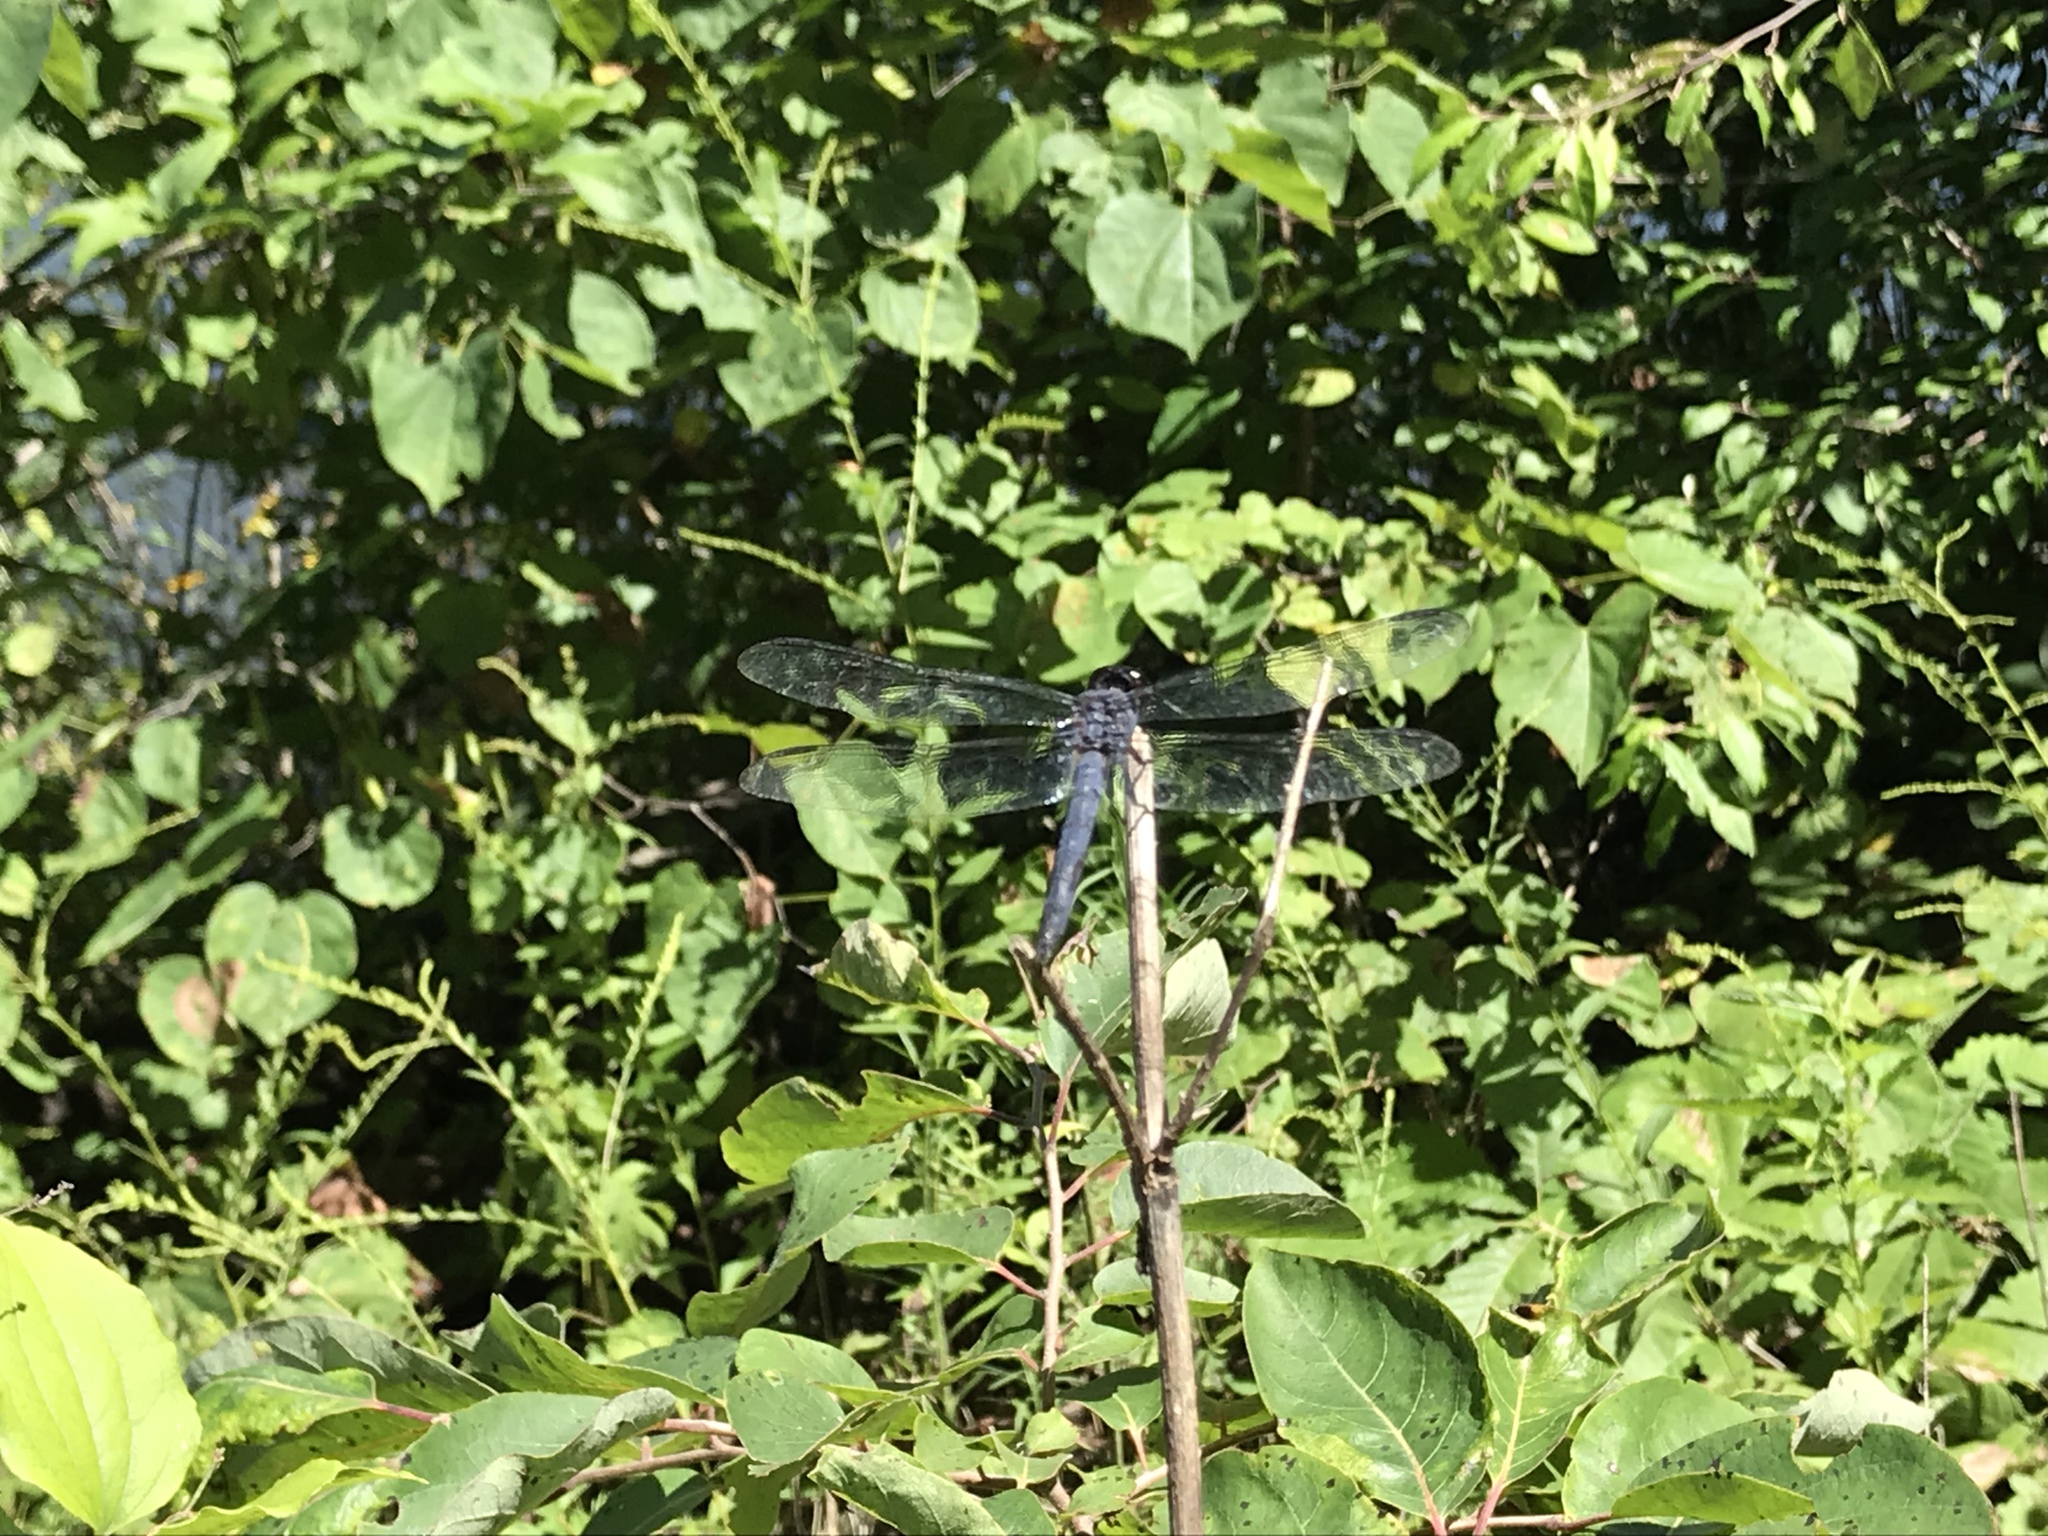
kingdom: Animalia
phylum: Arthropoda
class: Insecta
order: Odonata
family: Libellulidae
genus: Libellula
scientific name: Libellula incesta
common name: Slaty skimmer
